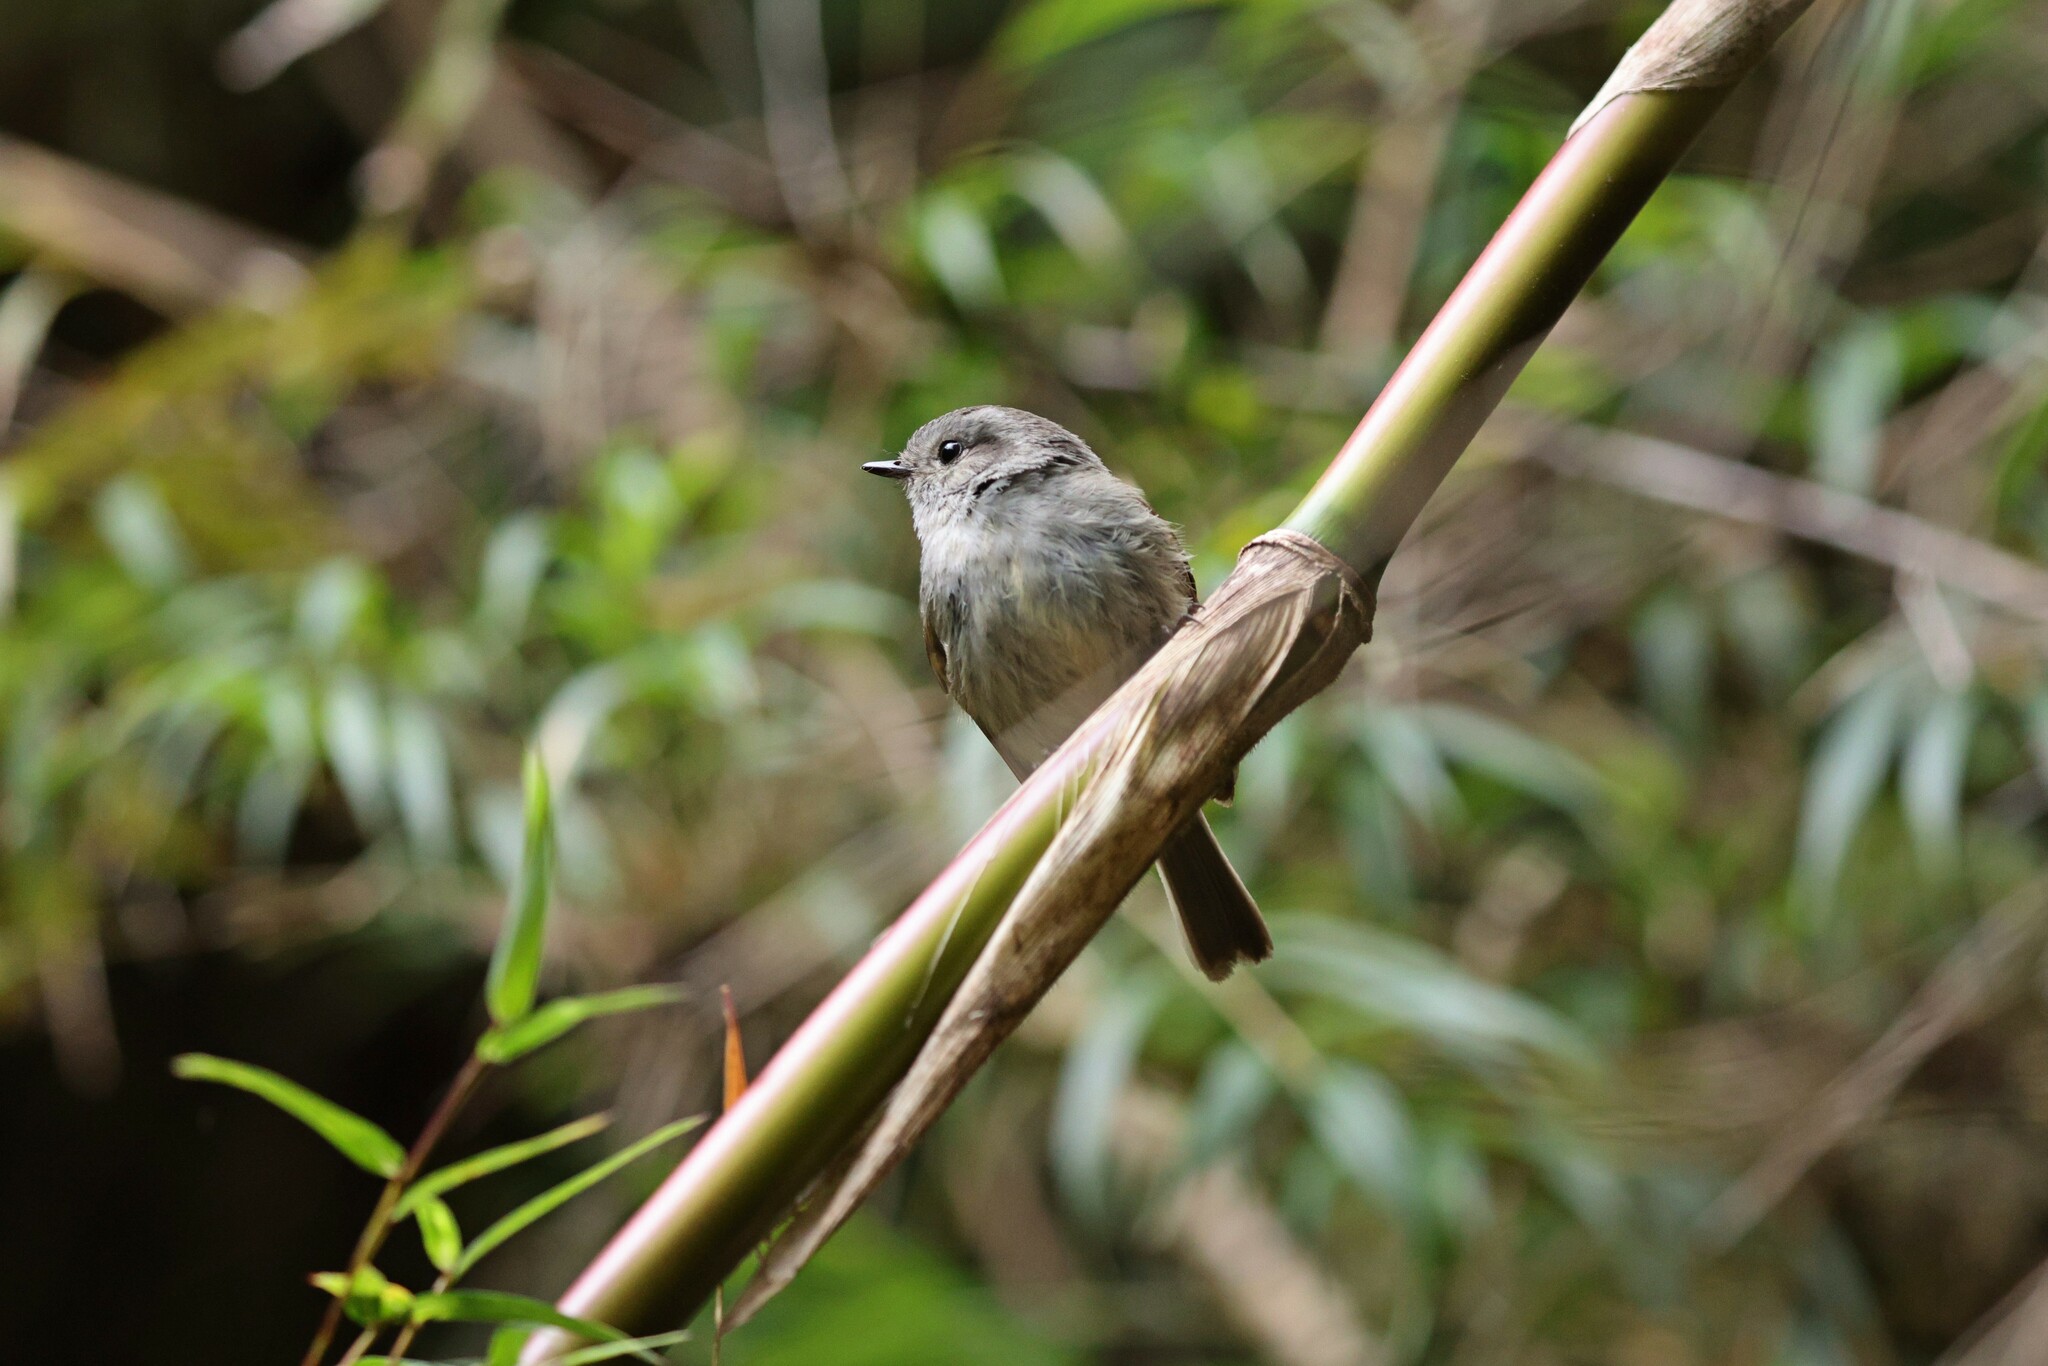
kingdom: Animalia
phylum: Chordata
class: Aves
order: Passeriformes
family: Tyrannidae
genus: Colorhamphus
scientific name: Colorhamphus parvirostris
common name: Patagonian tyrant
